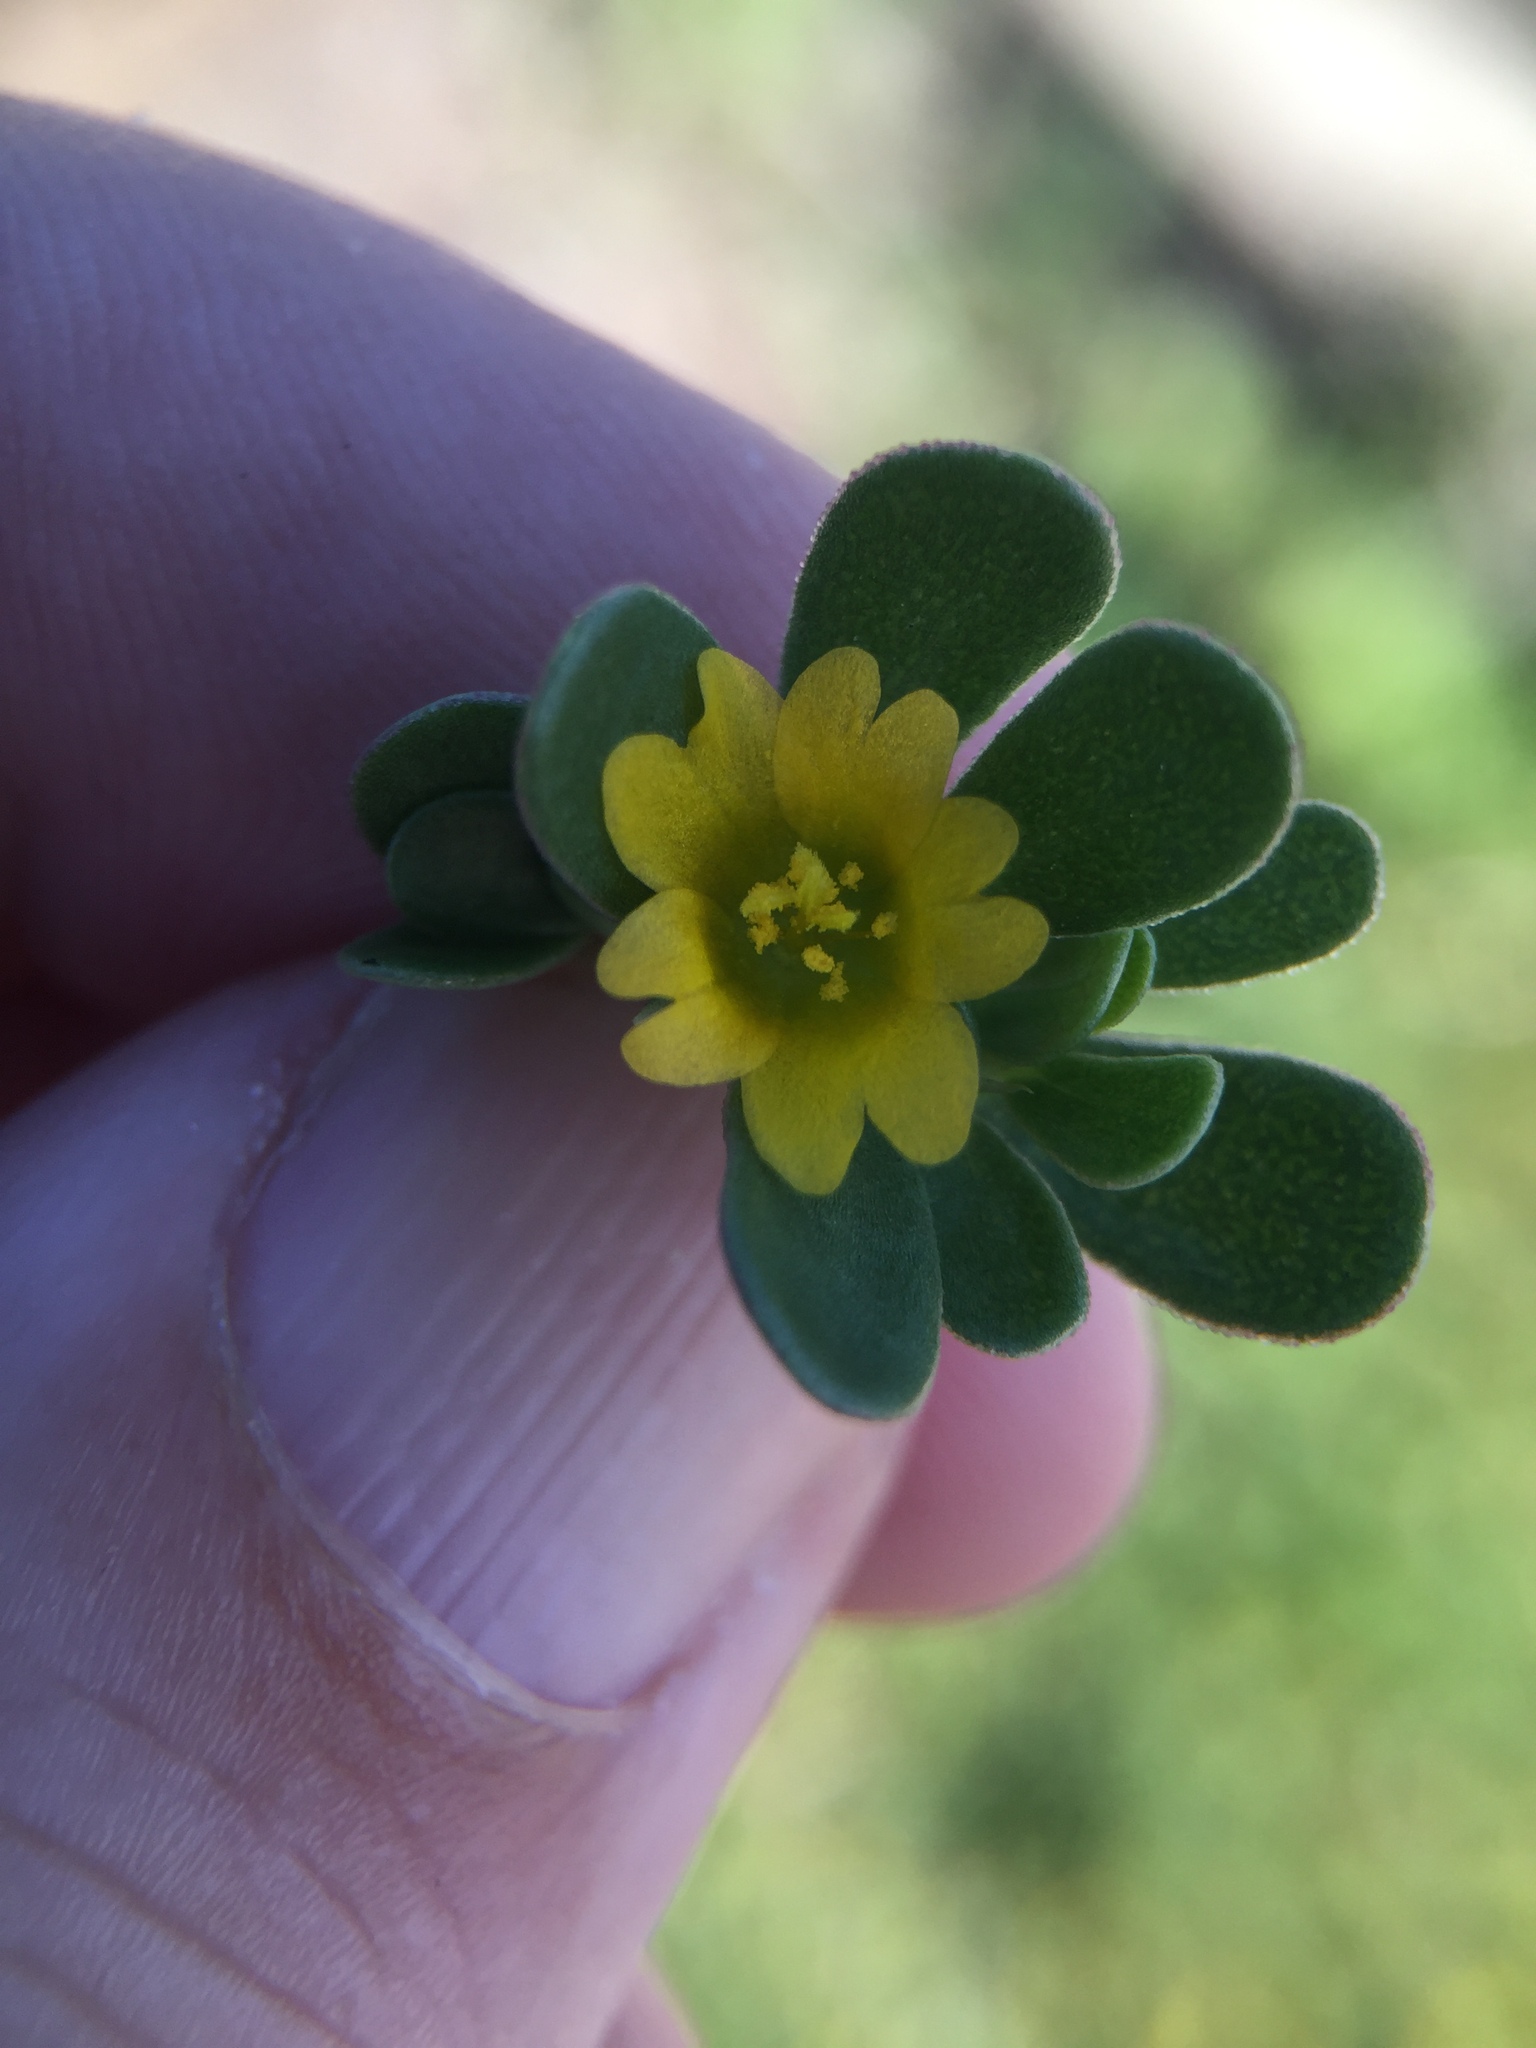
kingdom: Plantae
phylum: Tracheophyta
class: Magnoliopsida
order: Caryophyllales
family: Portulacaceae
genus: Portulaca
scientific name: Portulaca oleracea
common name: Common purslane
